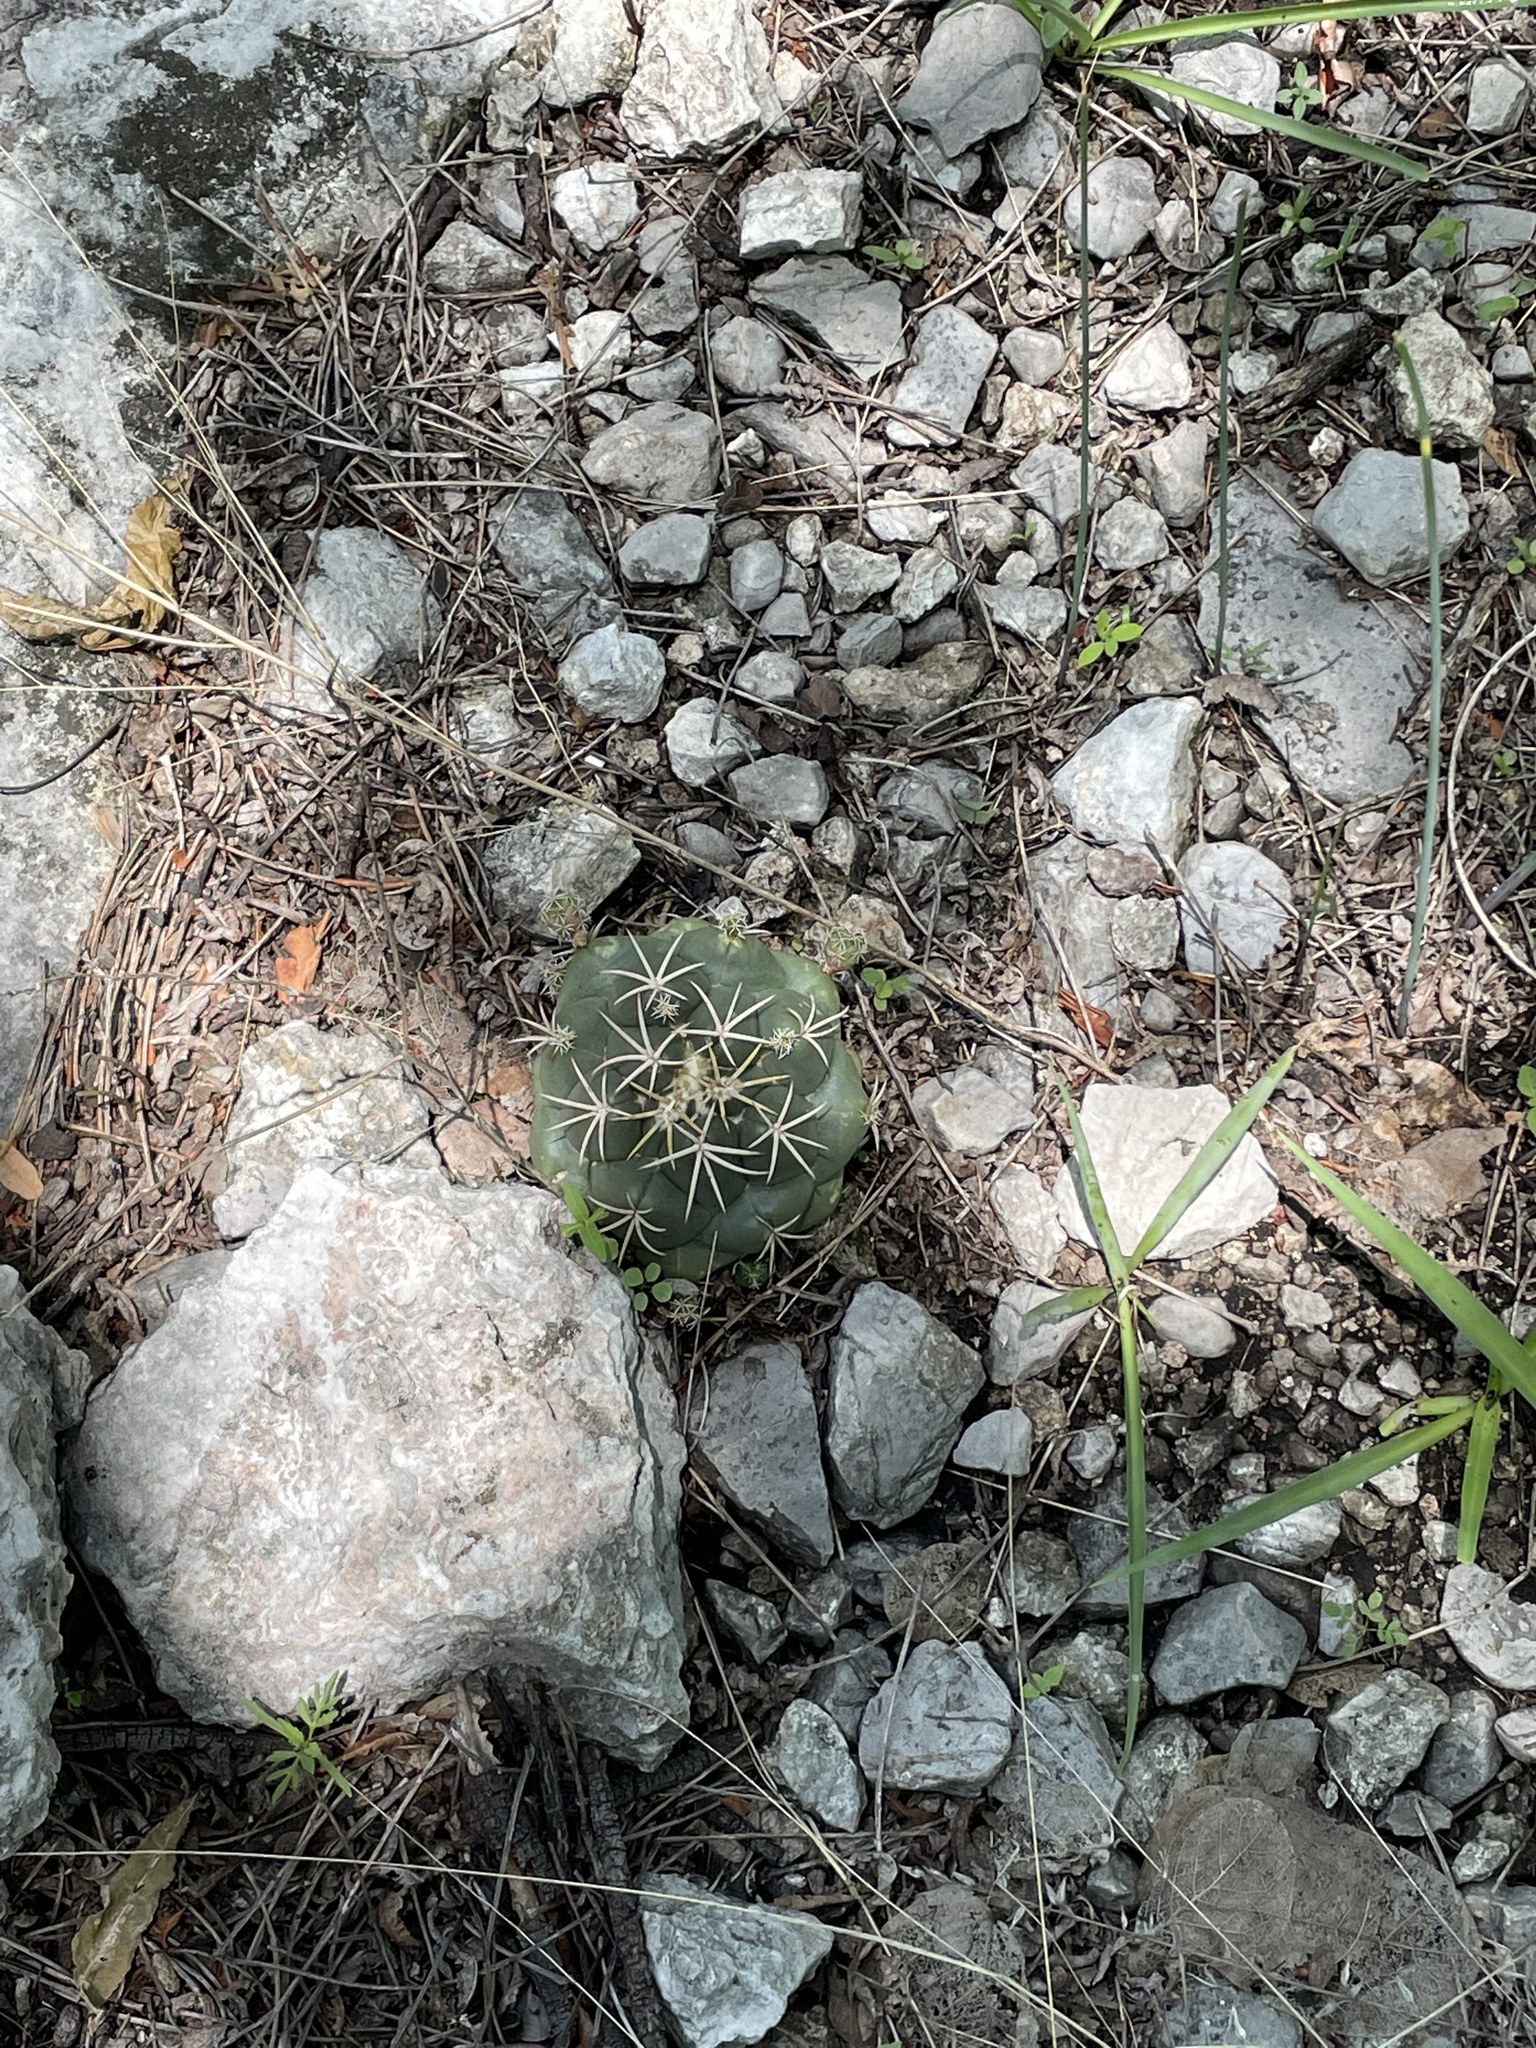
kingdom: Plantae
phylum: Tracheophyta
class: Magnoliopsida
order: Caryophyllales
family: Cactaceae
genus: Coryphantha
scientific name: Coryphantha elephantidens
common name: Elephant's tooth
